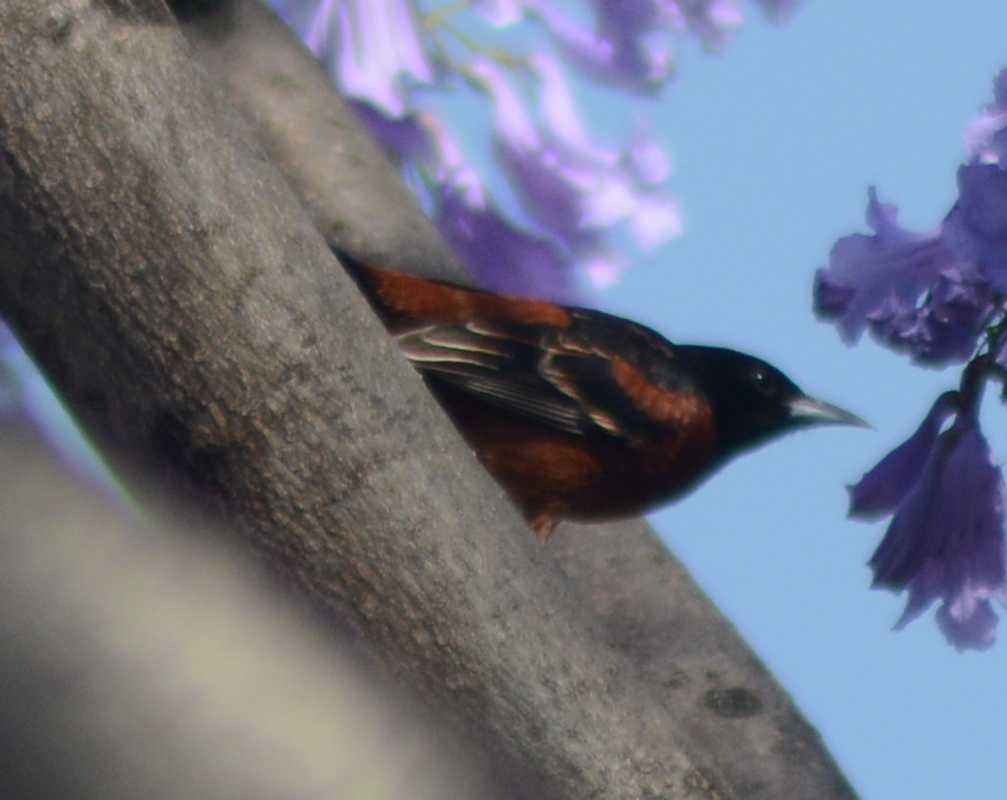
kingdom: Animalia
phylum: Chordata
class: Aves
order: Passeriformes
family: Icteridae
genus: Icterus
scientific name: Icterus spurius
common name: Orchard oriole
